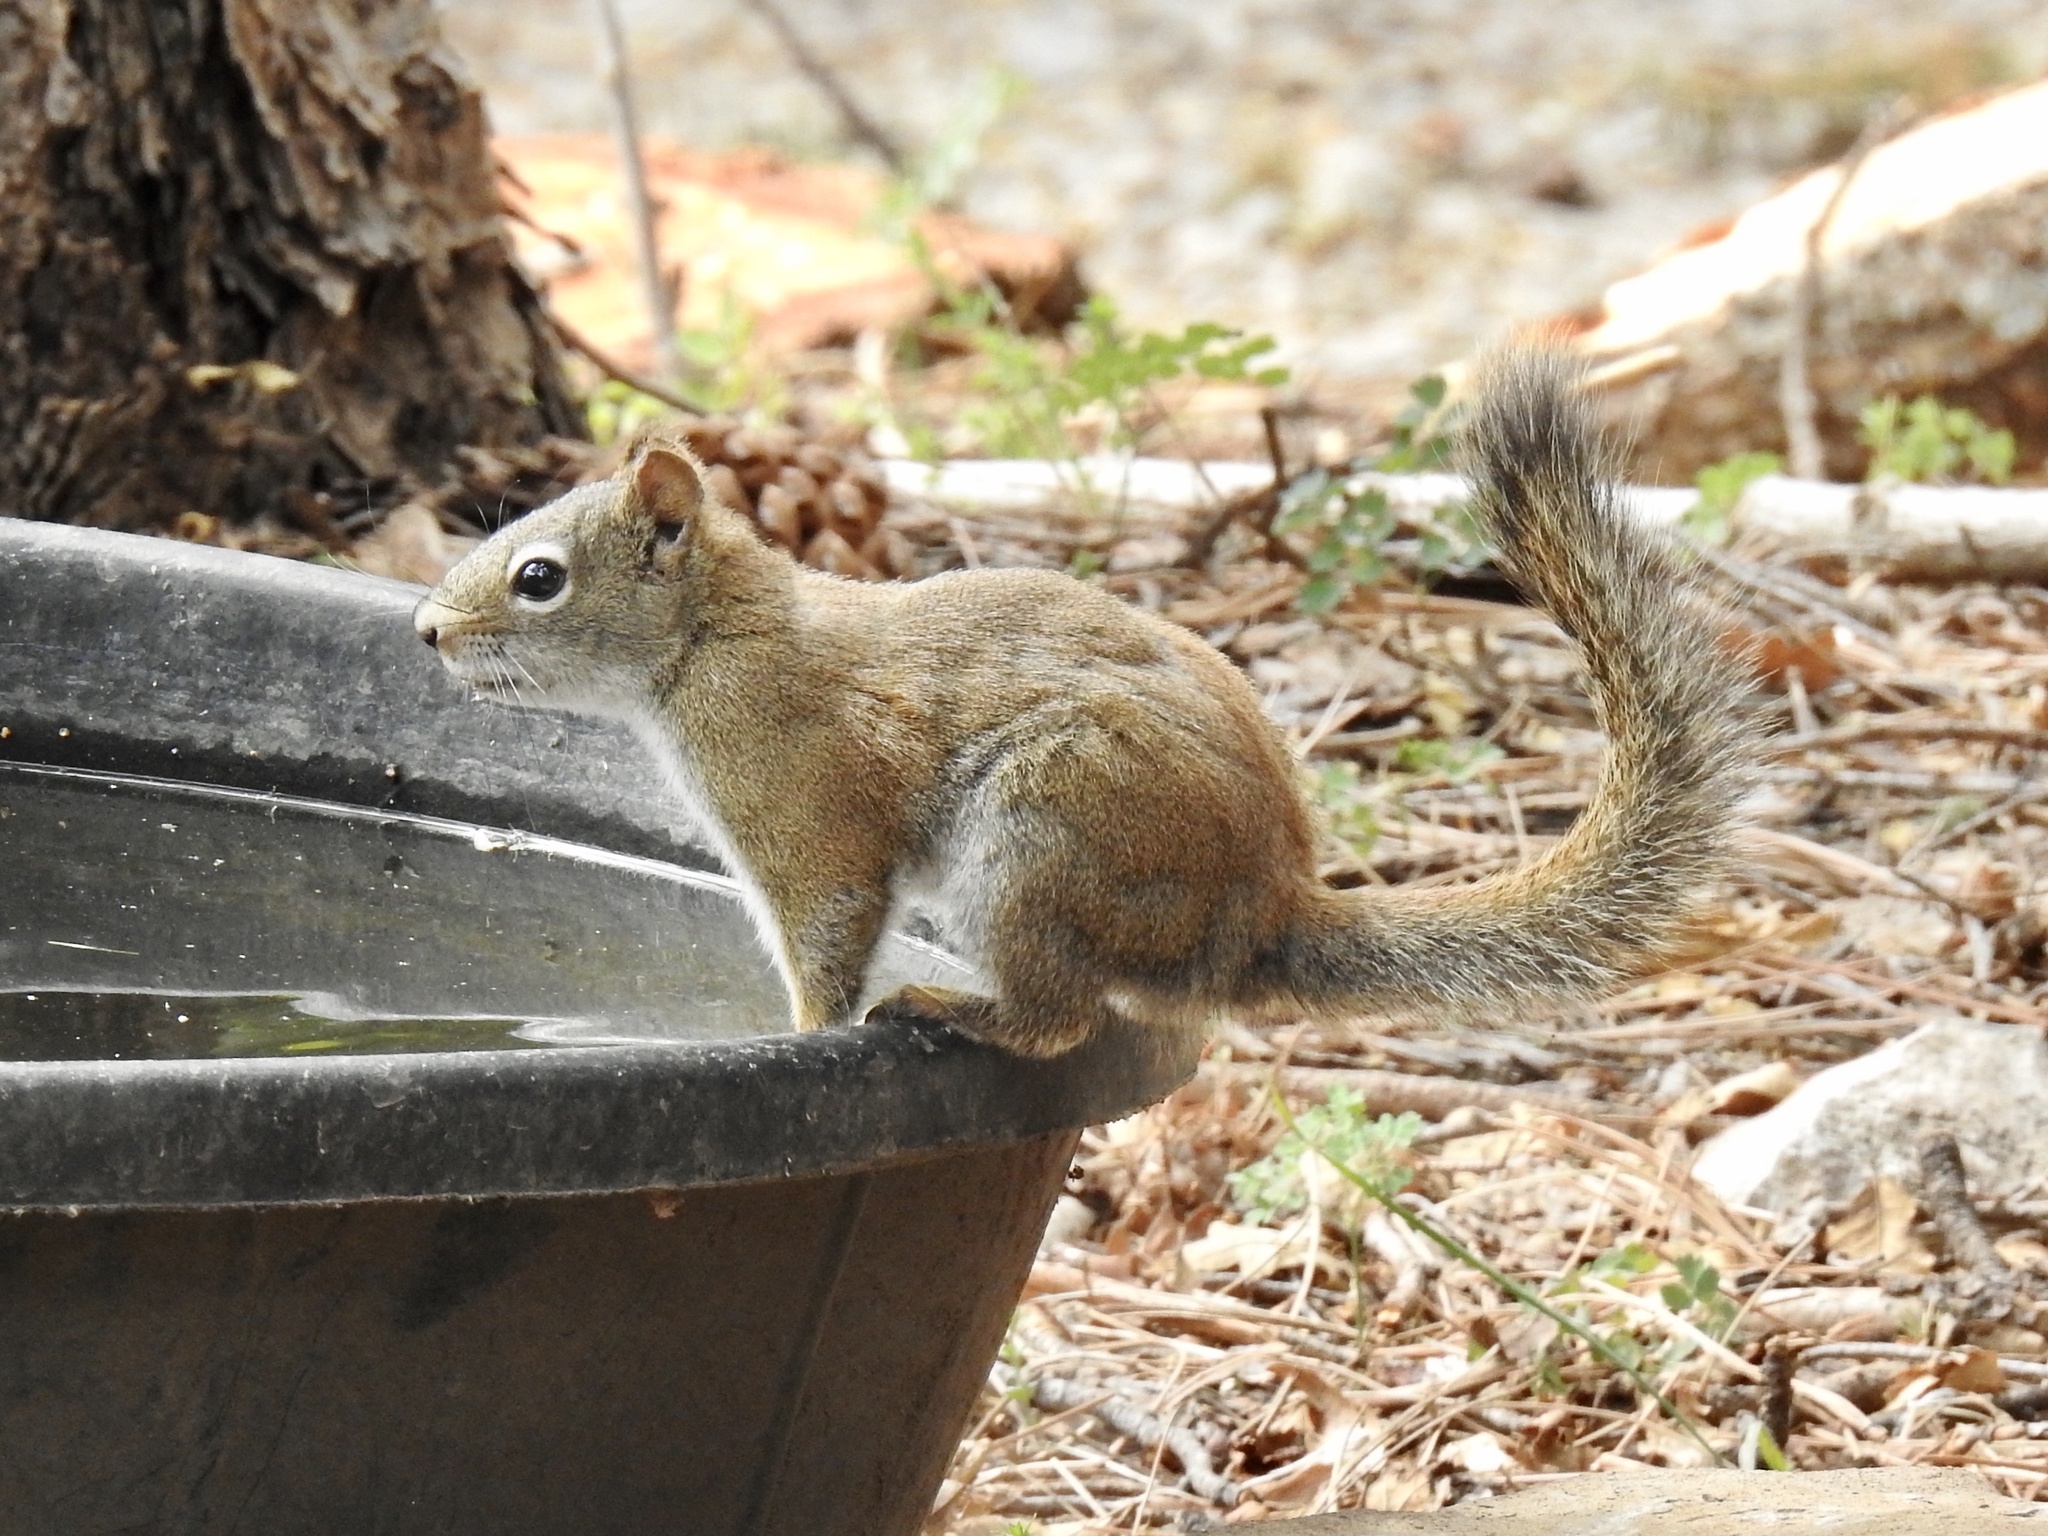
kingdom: Animalia
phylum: Chordata
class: Mammalia
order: Rodentia
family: Sciuridae
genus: Tamiasciurus
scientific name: Tamiasciurus hudsonicus
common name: Red squirrel
